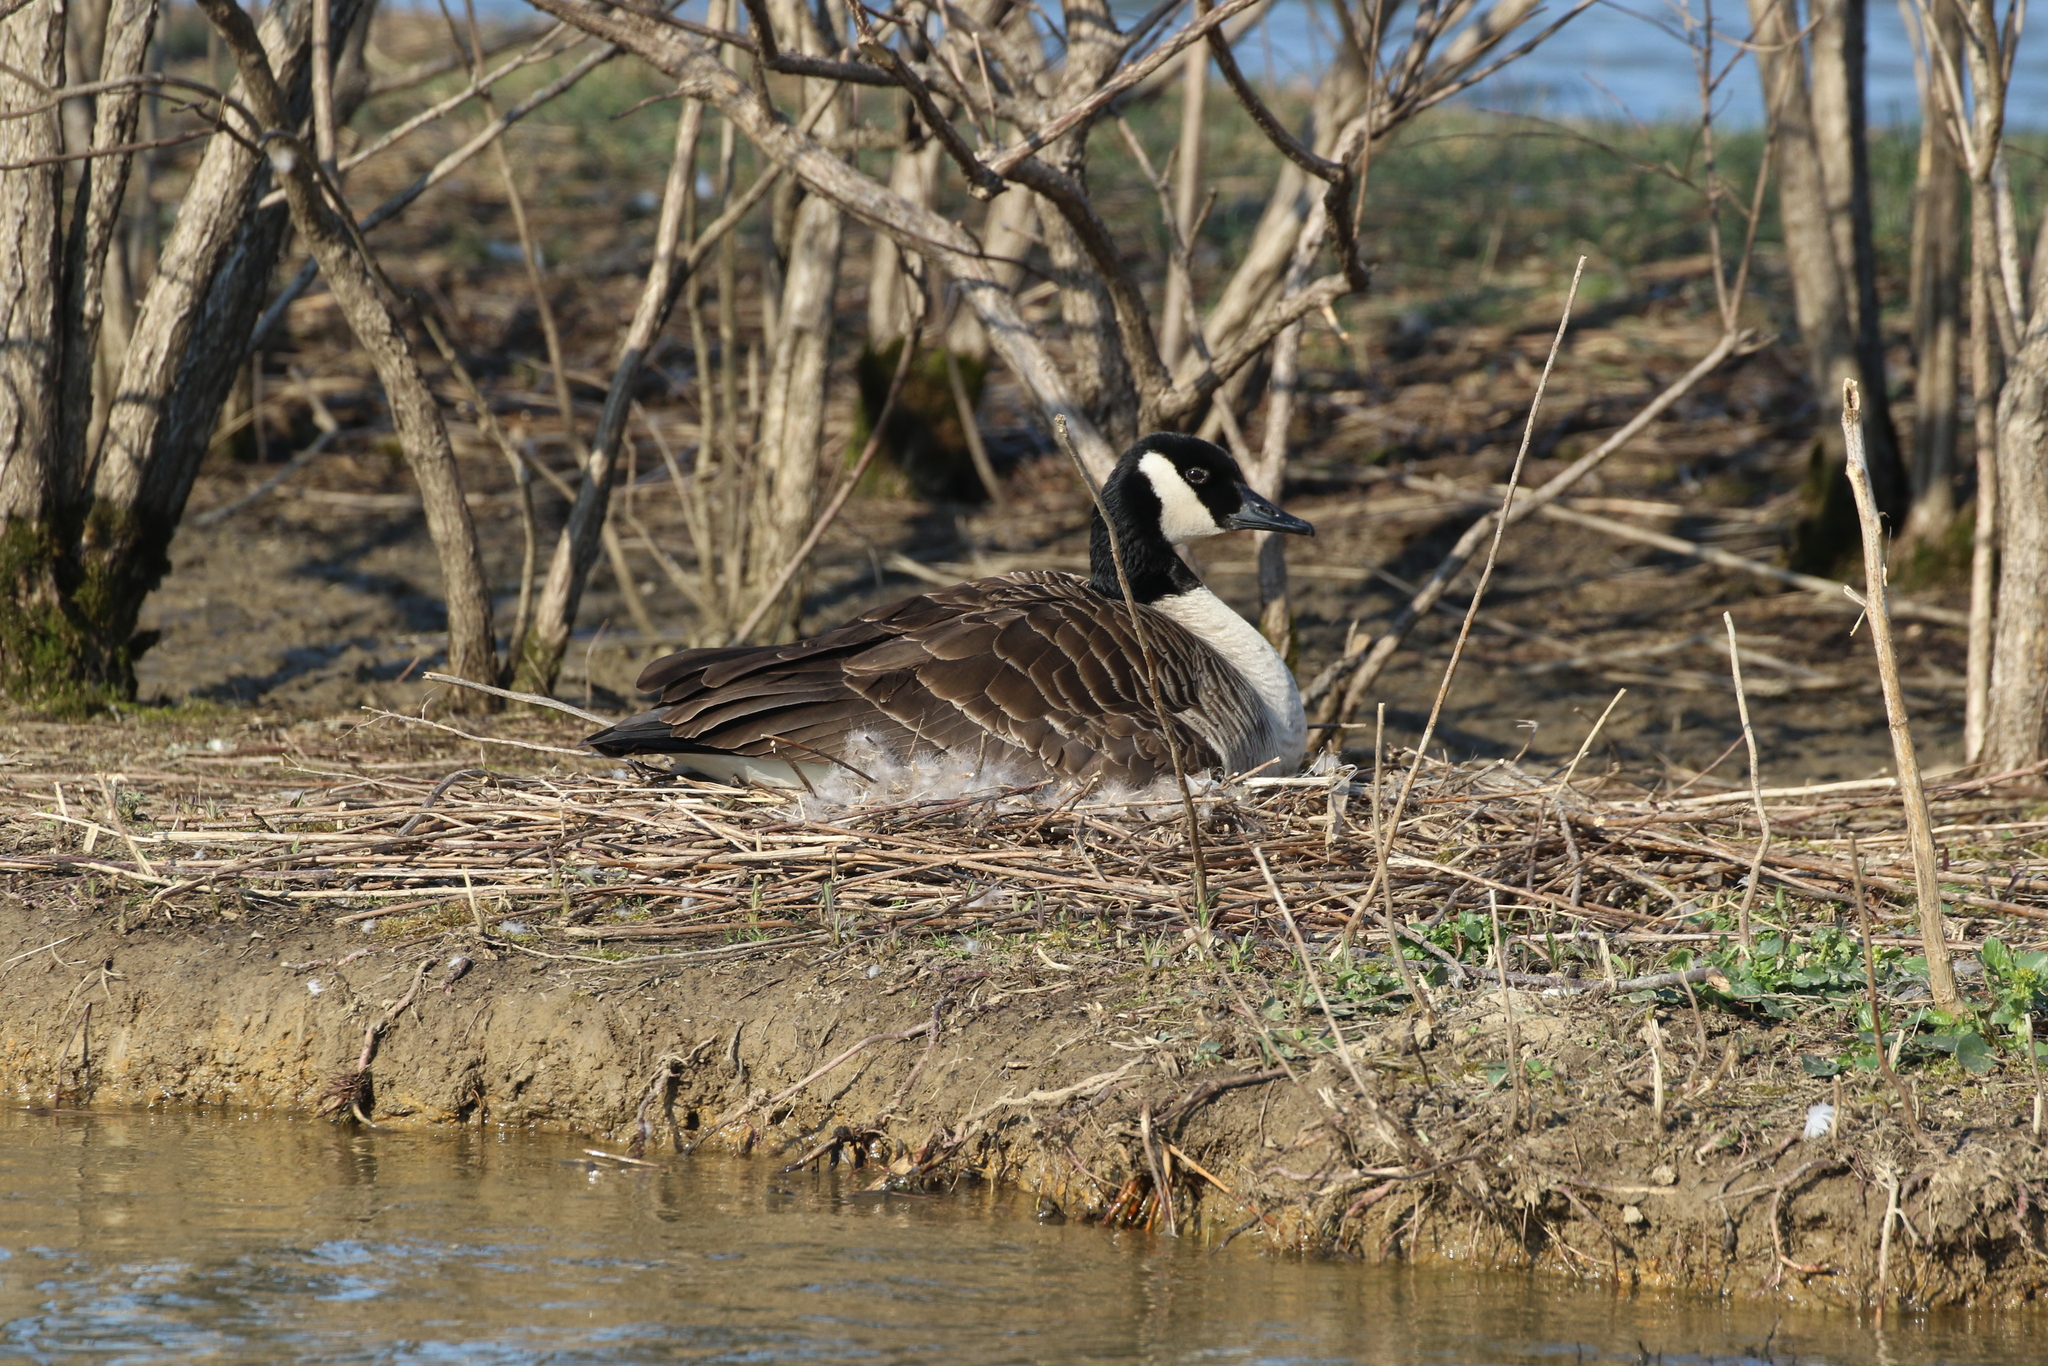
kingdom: Animalia
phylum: Chordata
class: Aves
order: Anseriformes
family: Anatidae
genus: Branta
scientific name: Branta canadensis
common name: Canada goose
